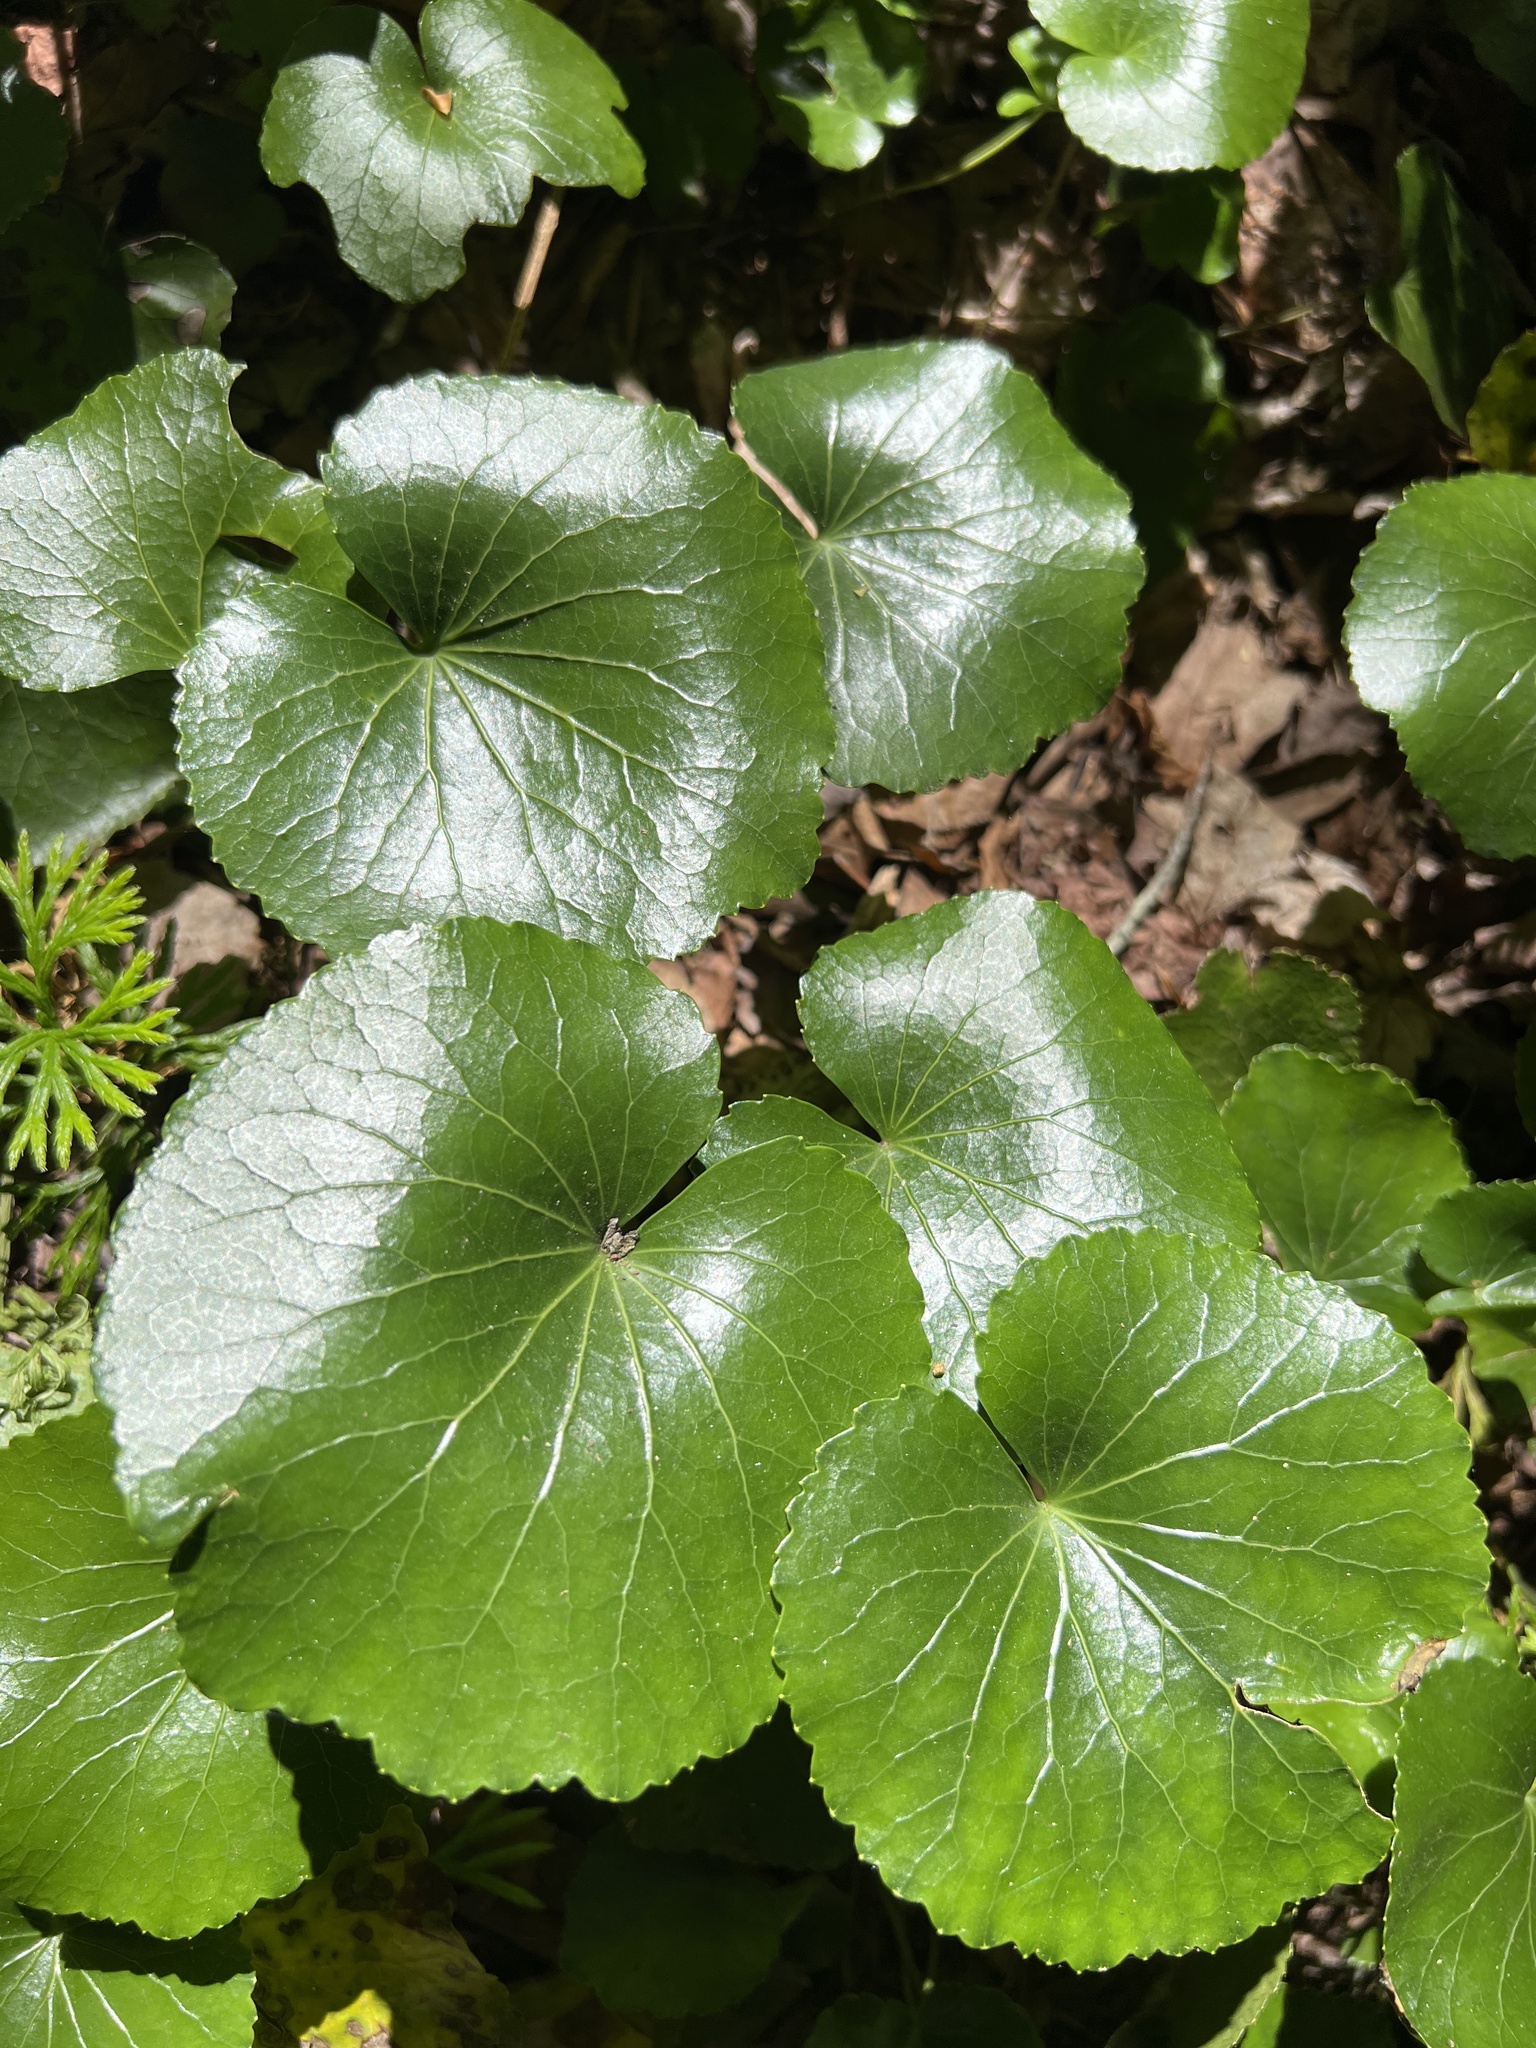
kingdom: Plantae
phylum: Tracheophyta
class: Magnoliopsida
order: Ericales
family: Diapensiaceae
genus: Galax
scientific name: Galax urceolata
